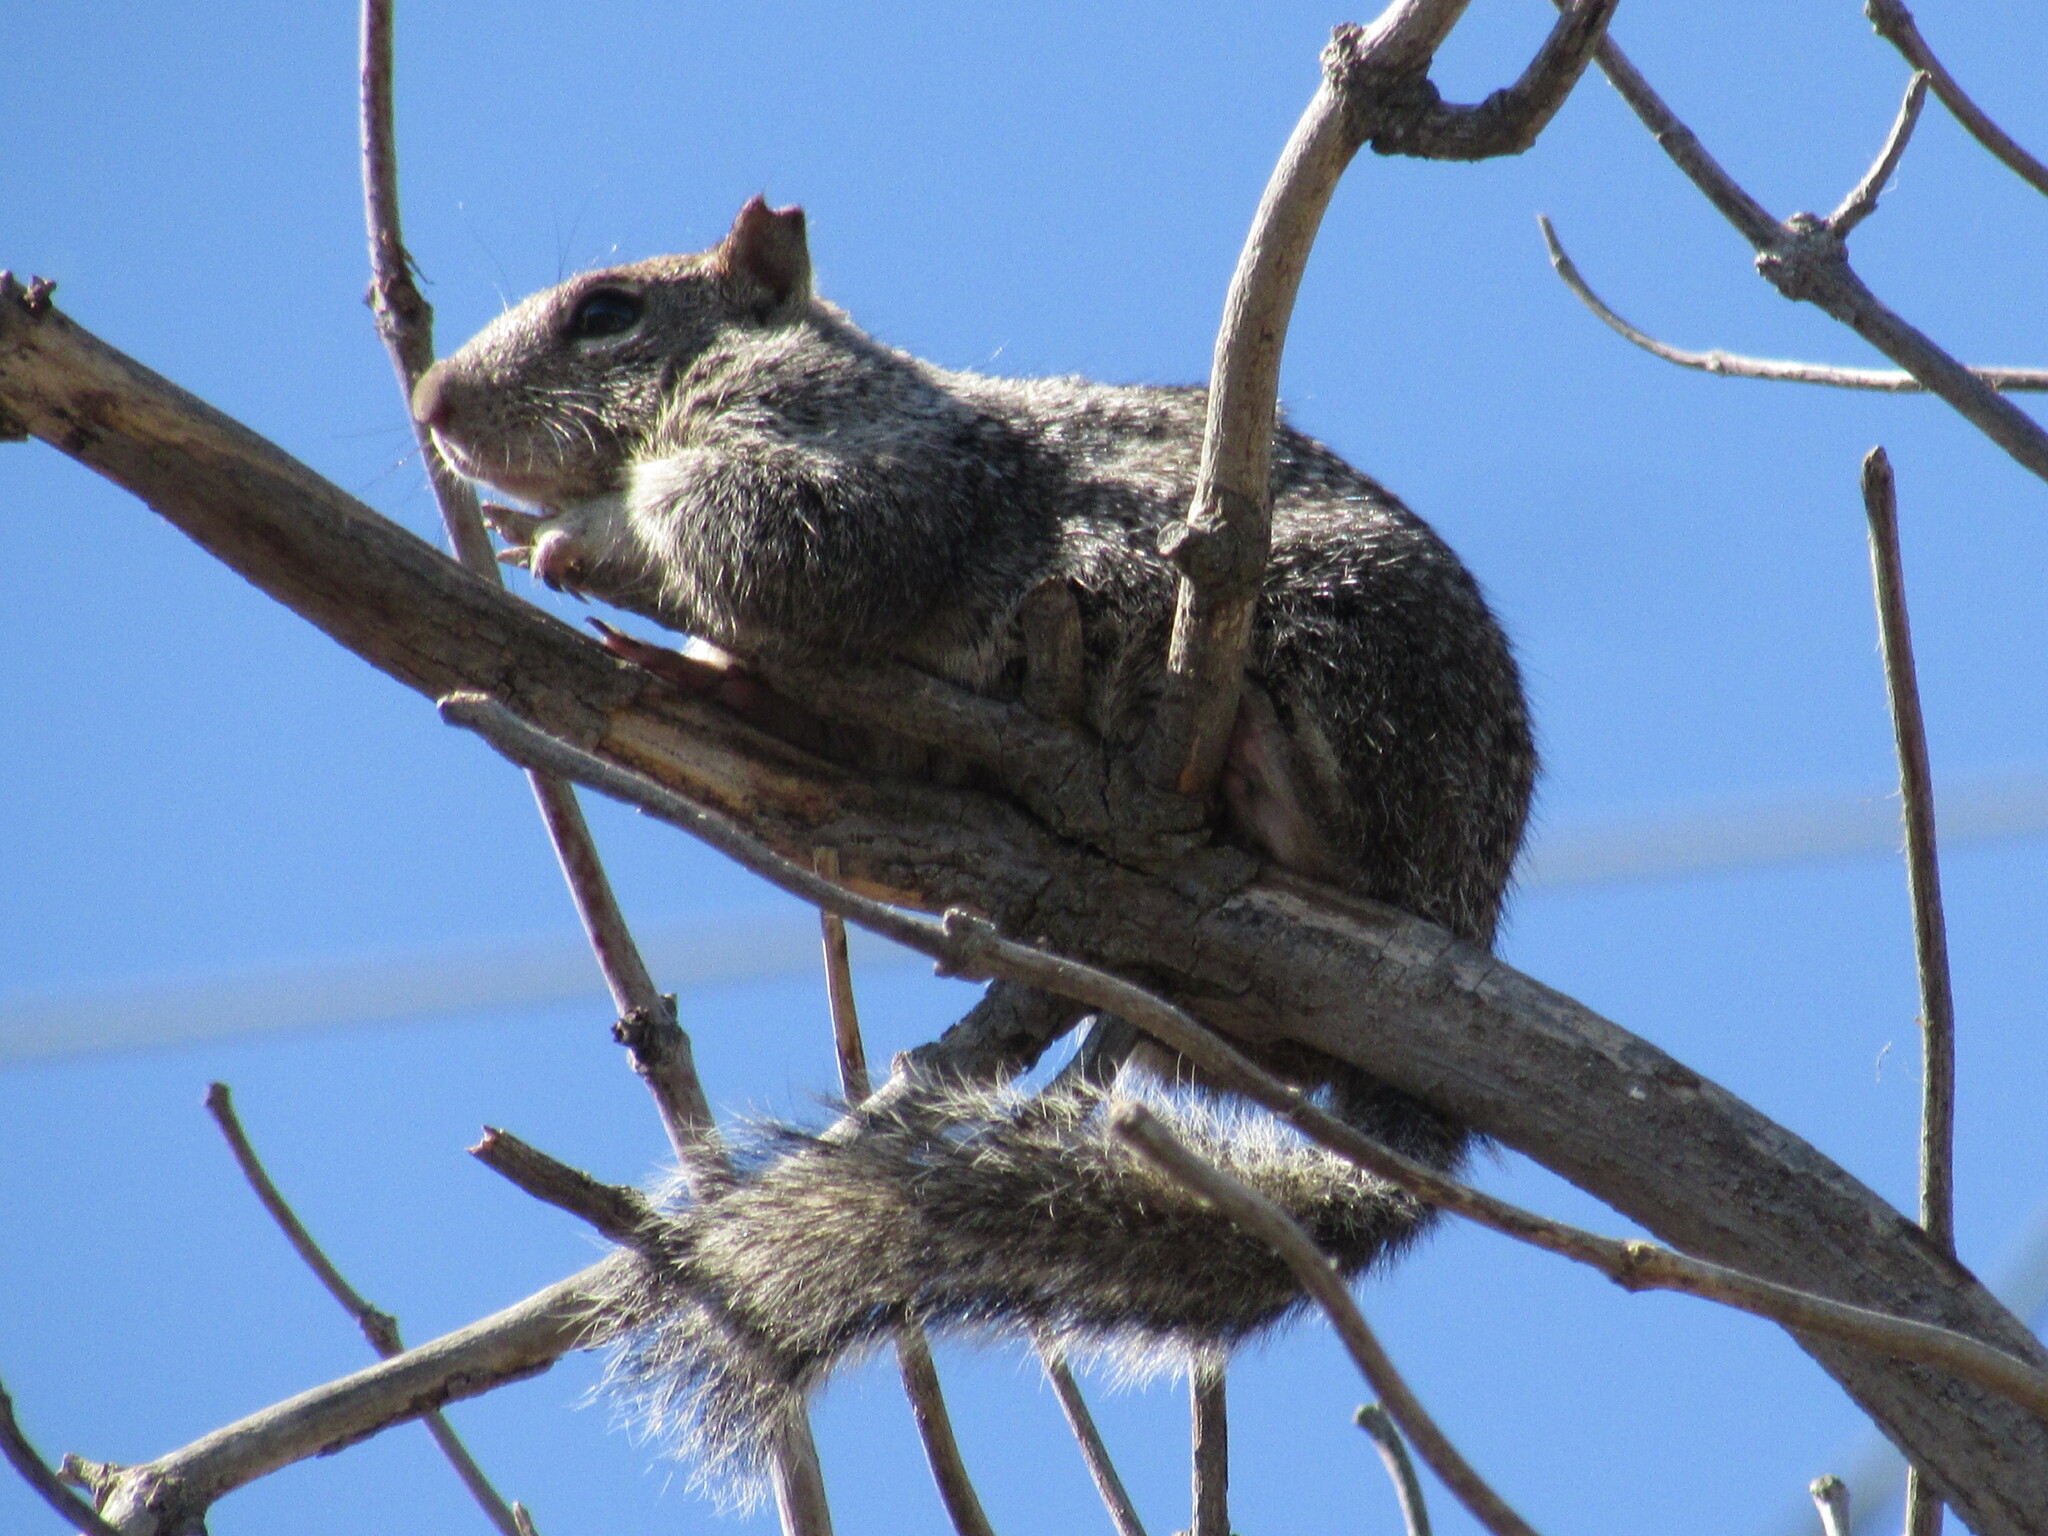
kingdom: Animalia
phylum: Chordata
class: Mammalia
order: Rodentia
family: Sciuridae
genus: Otospermophilus
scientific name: Otospermophilus beecheyi
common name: California ground squirrel
